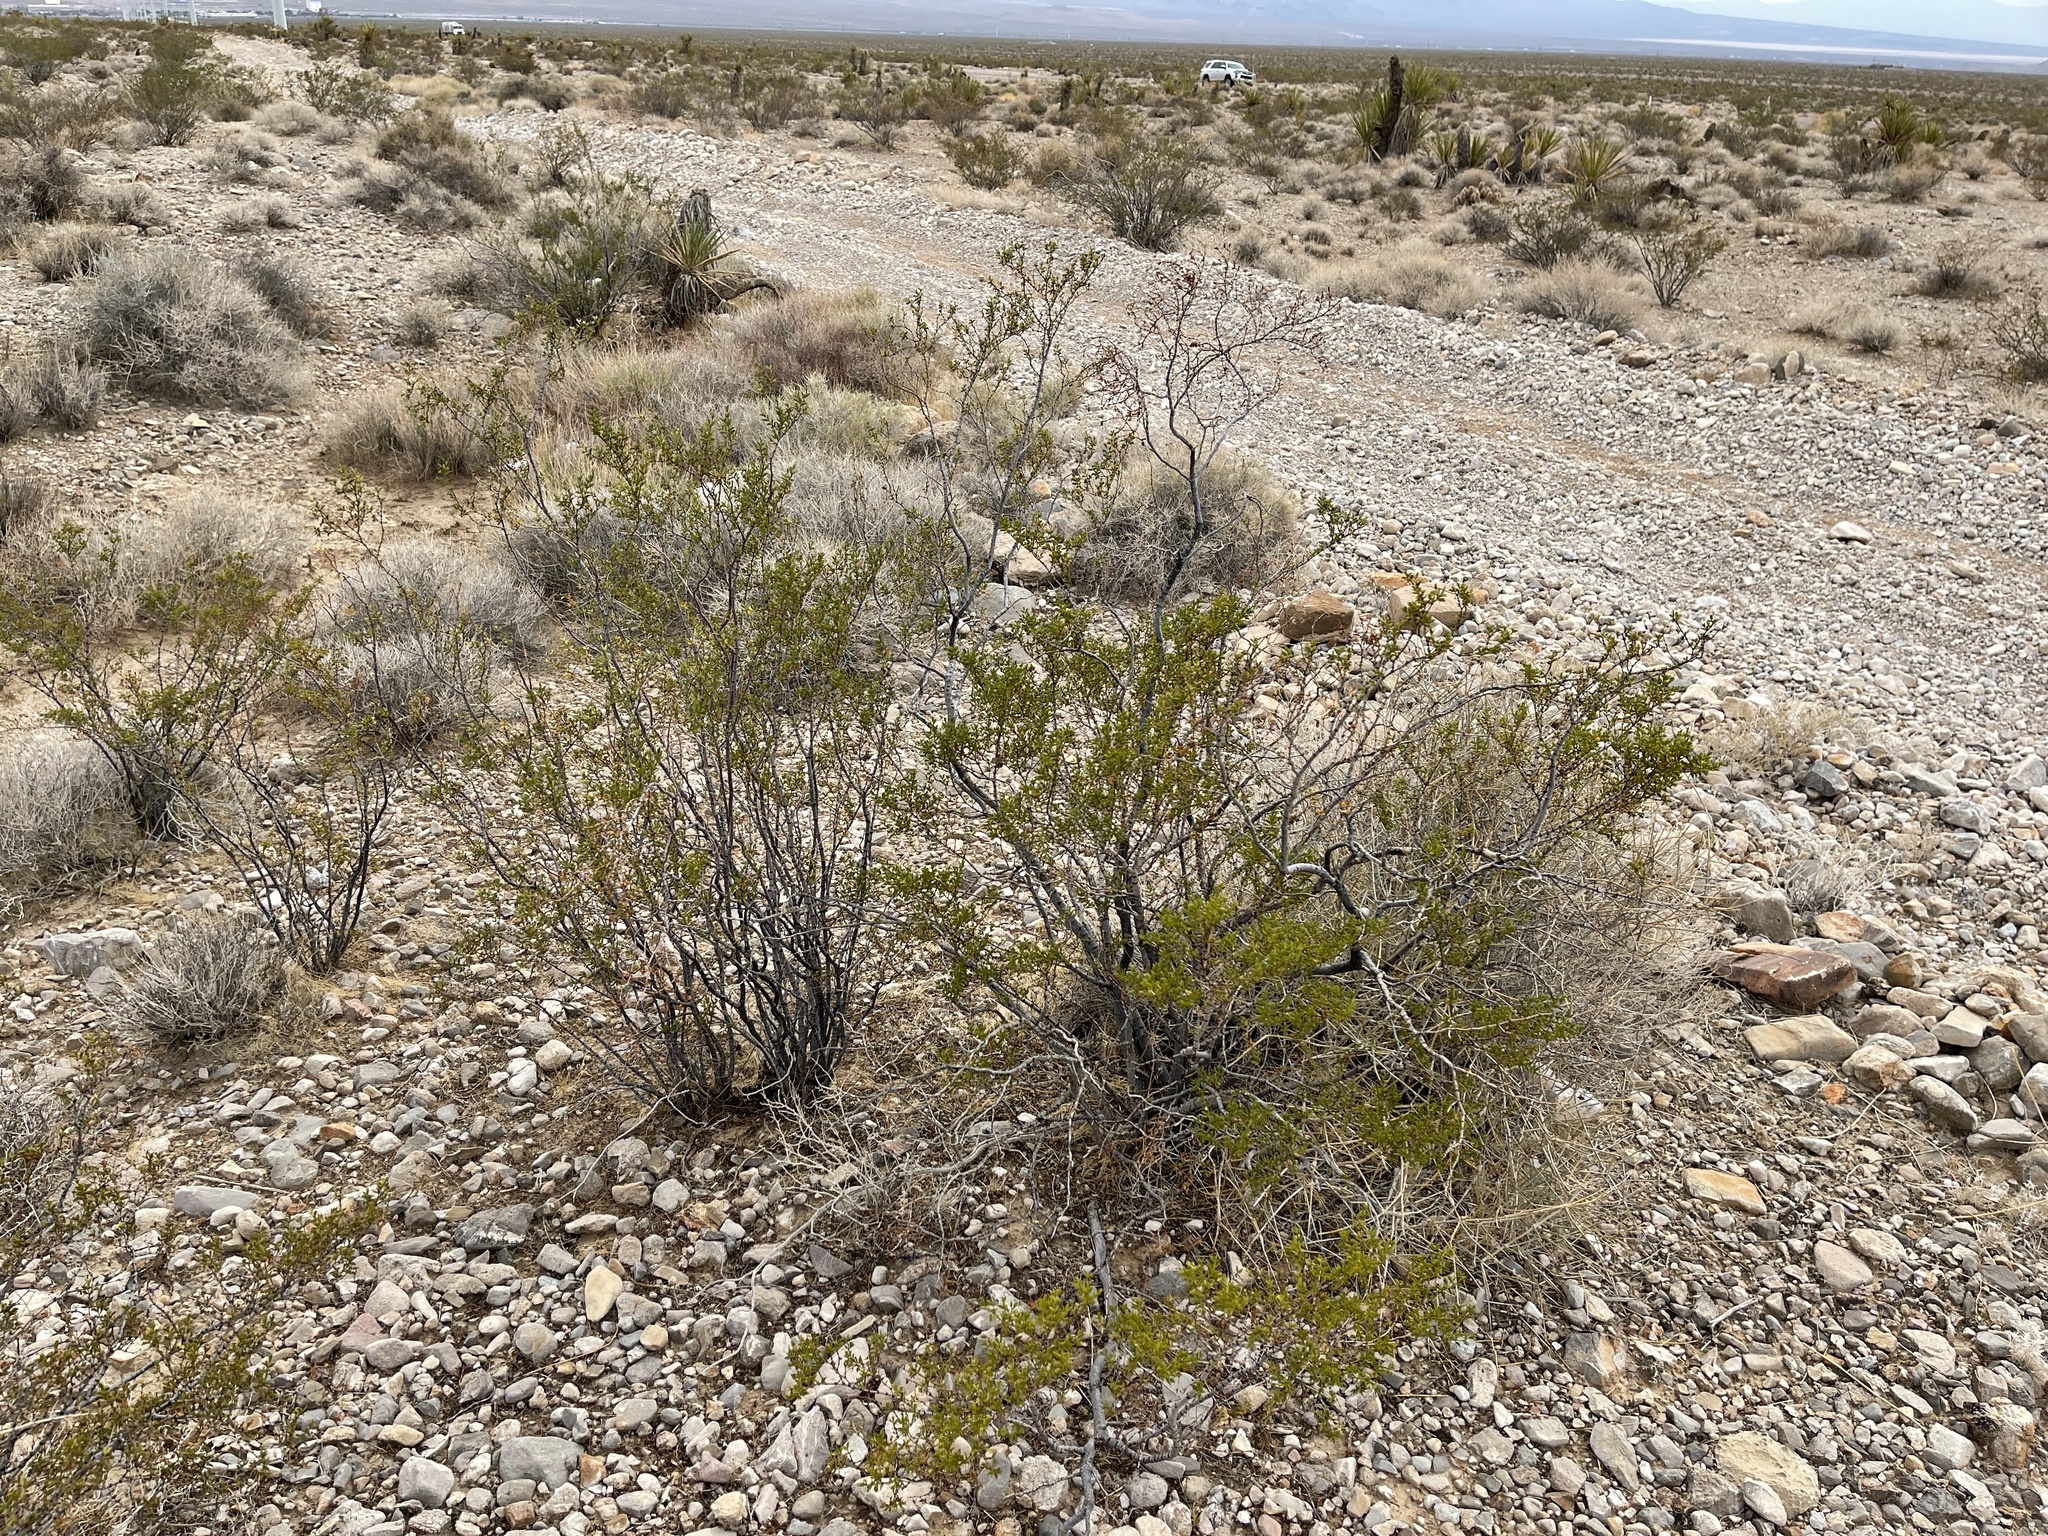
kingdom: Plantae
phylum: Tracheophyta
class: Magnoliopsida
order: Zygophyllales
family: Zygophyllaceae
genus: Larrea
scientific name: Larrea tridentata
